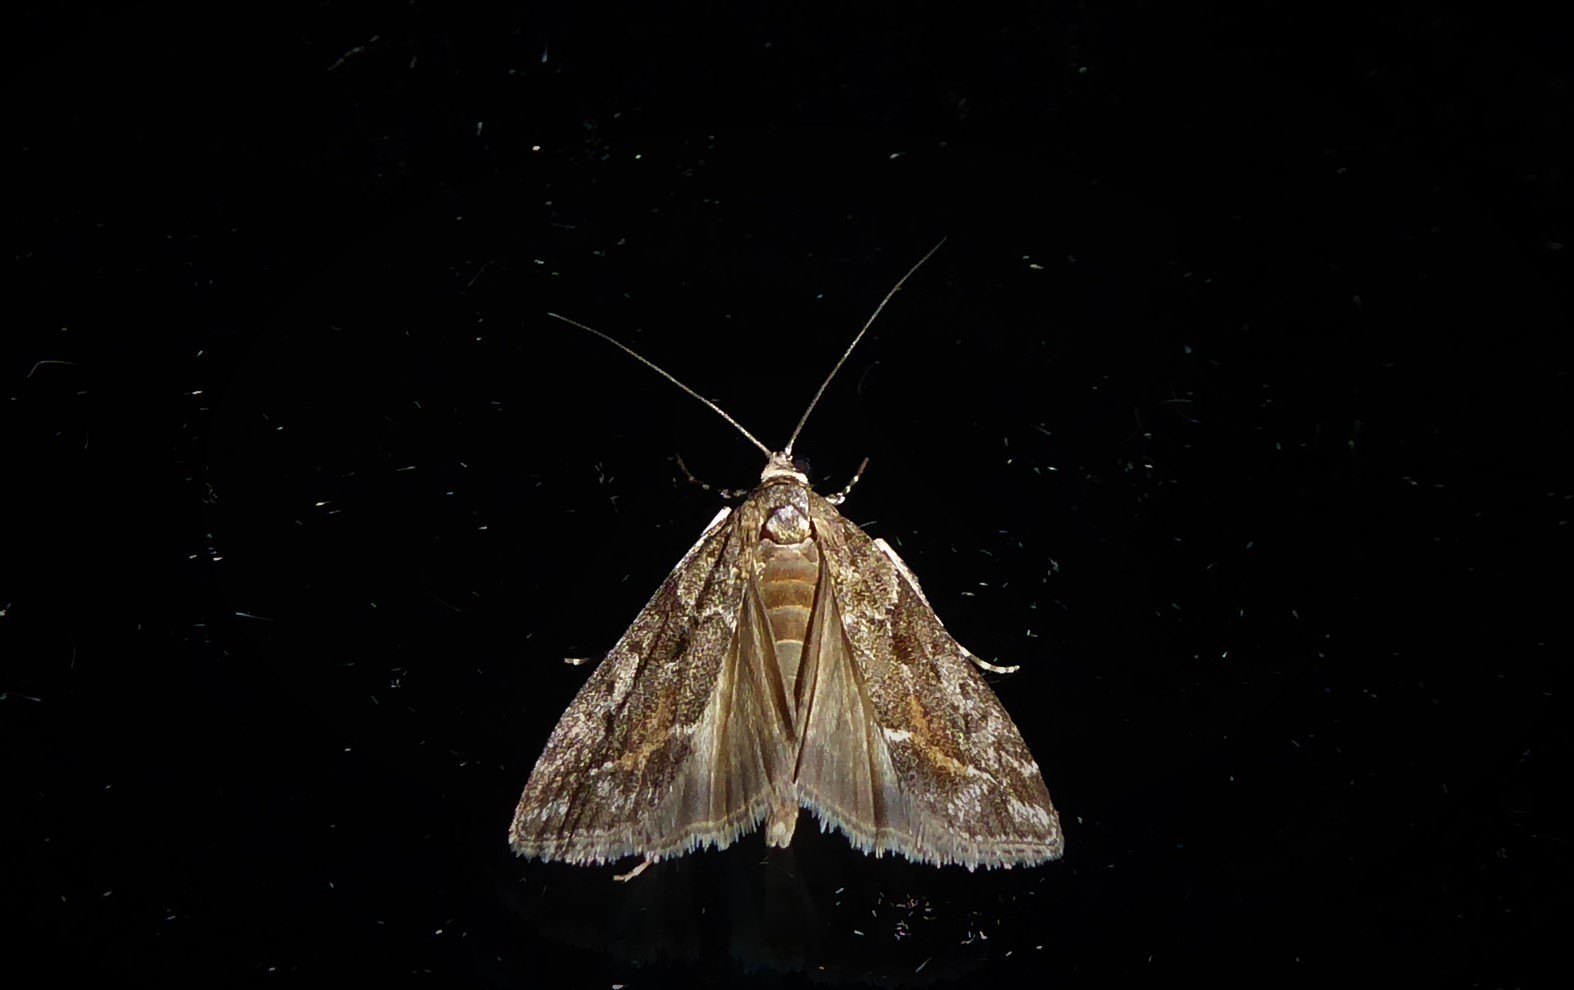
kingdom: Animalia
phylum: Arthropoda
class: Insecta
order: Lepidoptera
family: Crambidae
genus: Eudonia
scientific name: Eudonia submarginalis
